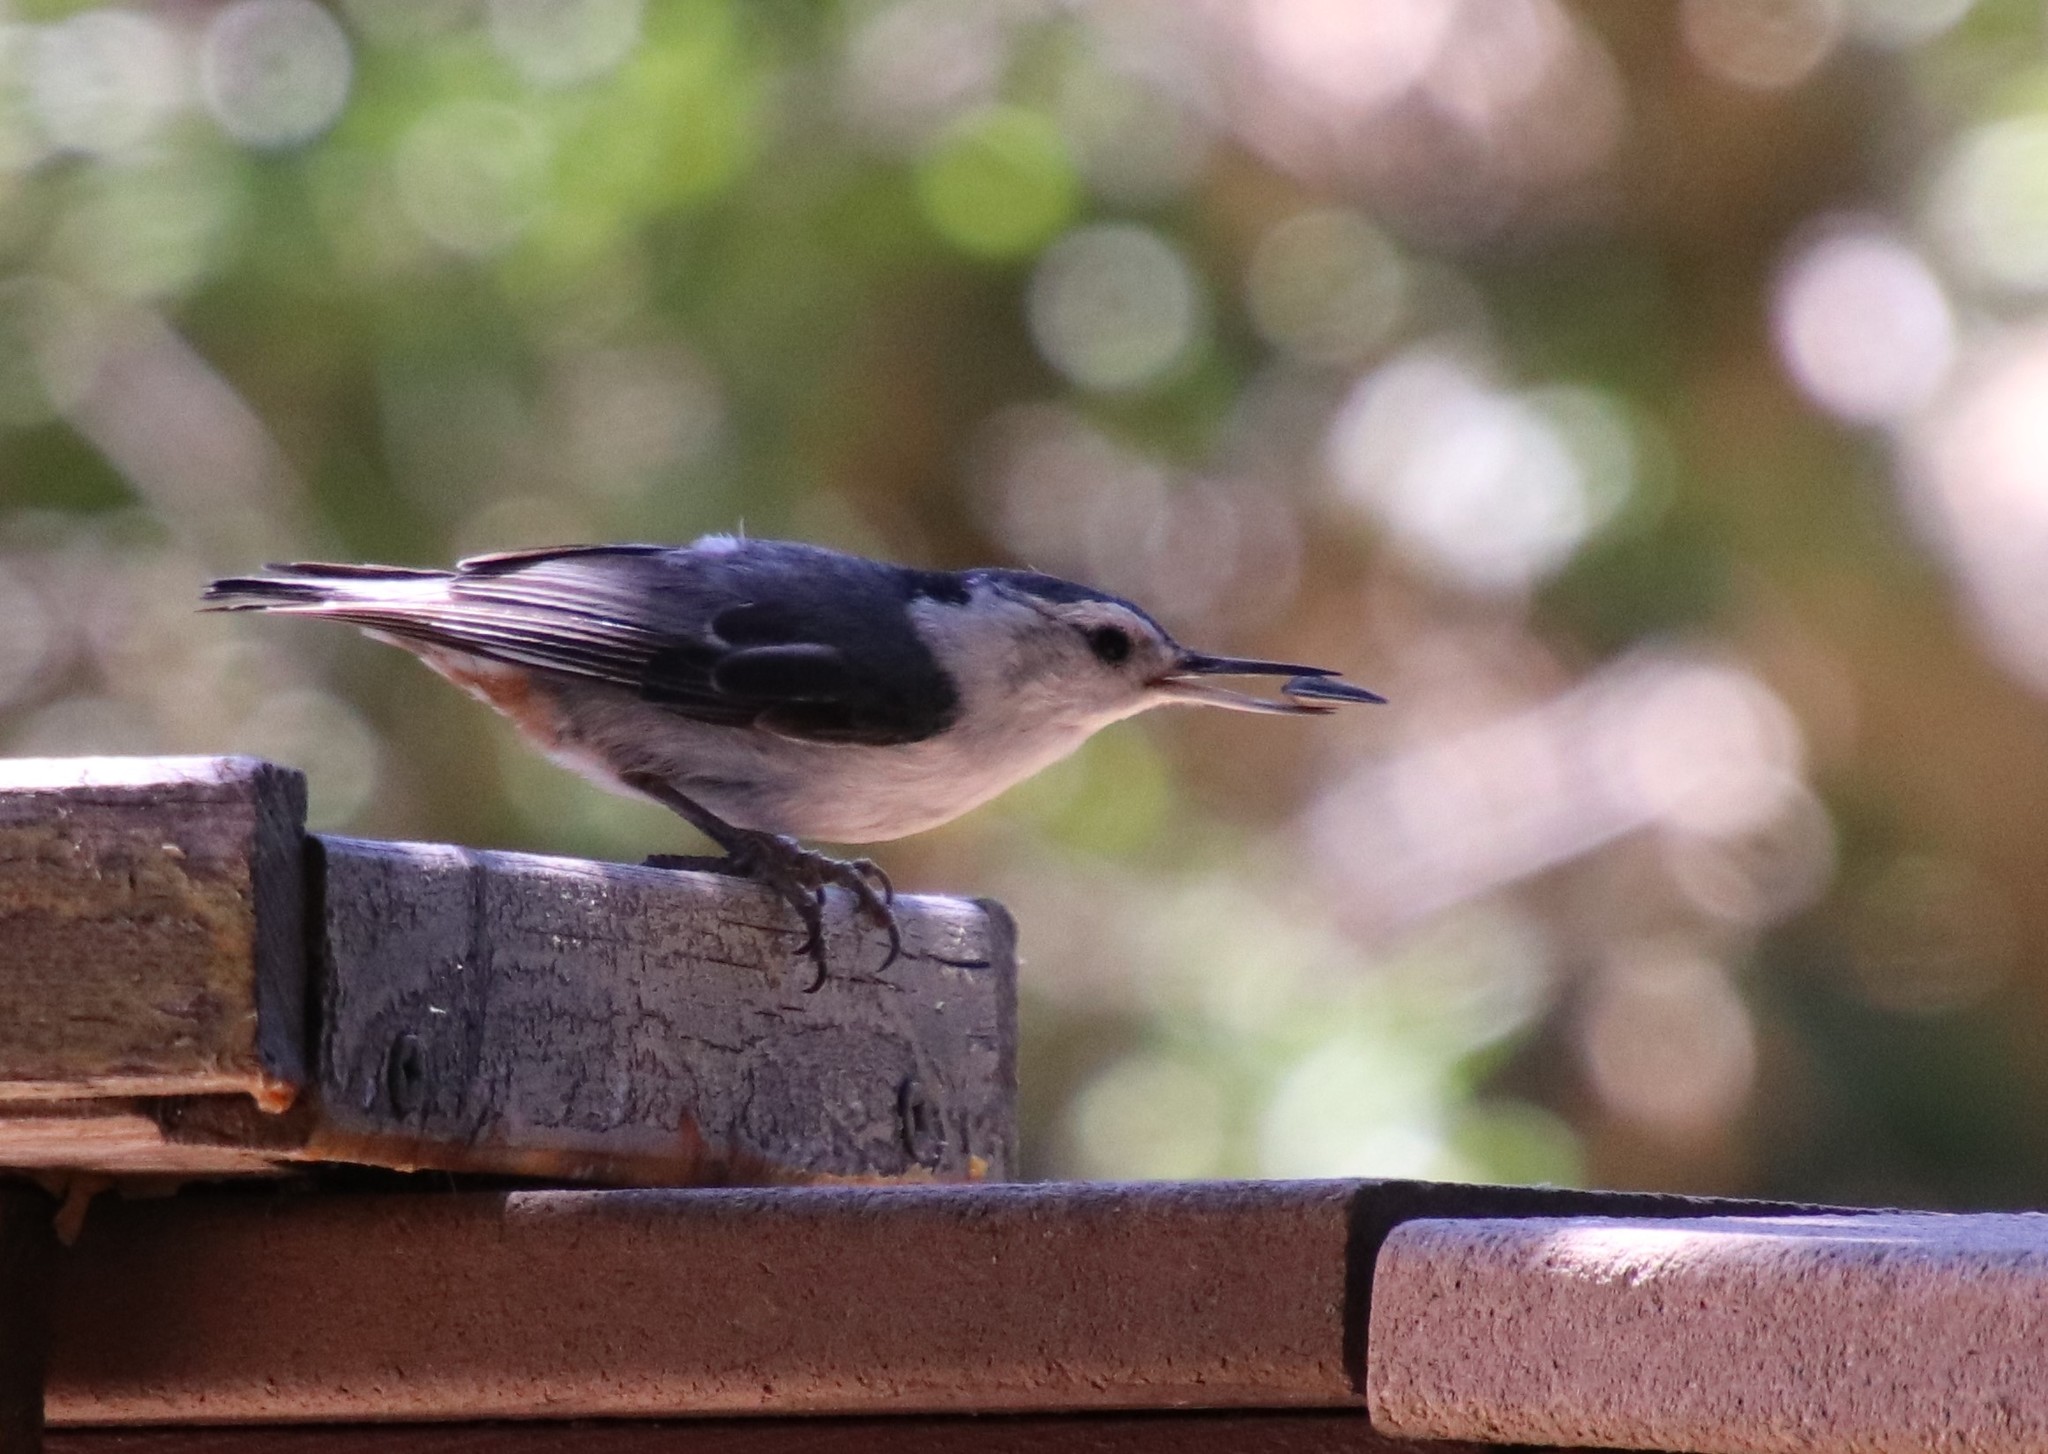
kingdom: Animalia
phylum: Chordata
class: Aves
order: Passeriformes
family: Sittidae
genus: Sitta
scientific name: Sitta carolinensis
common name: White-breasted nuthatch
